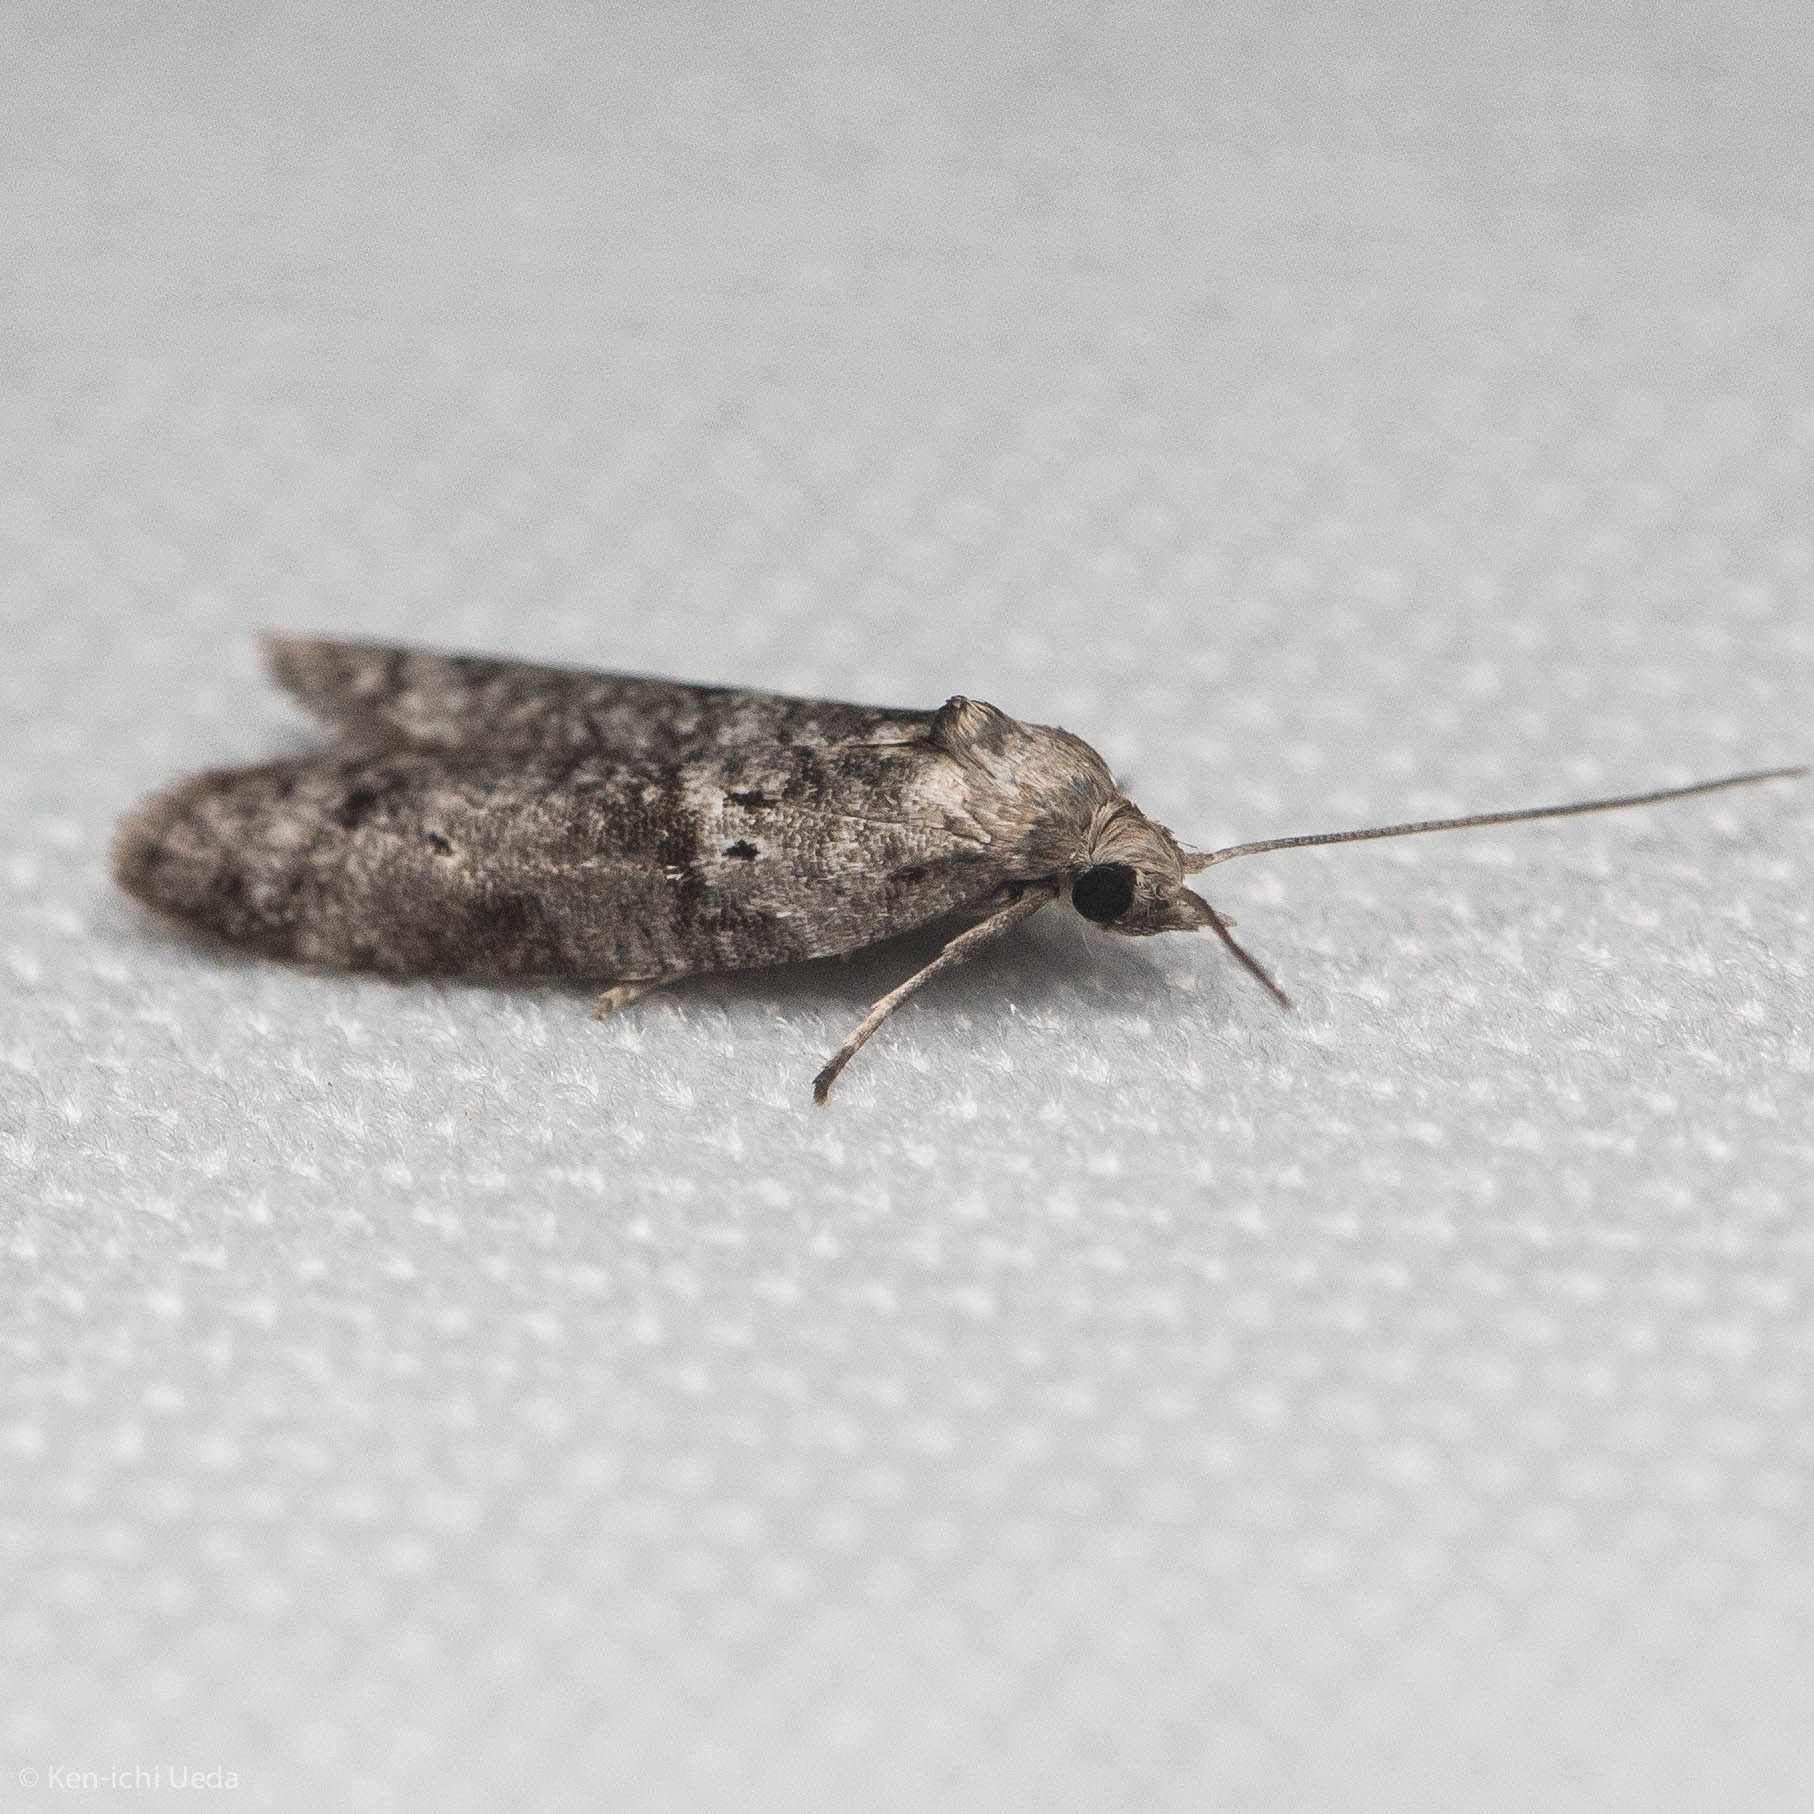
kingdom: Animalia
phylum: Arthropoda
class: Insecta
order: Lepidoptera
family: Copromorphidae
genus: Lotisma
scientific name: Lotisma trigonana
